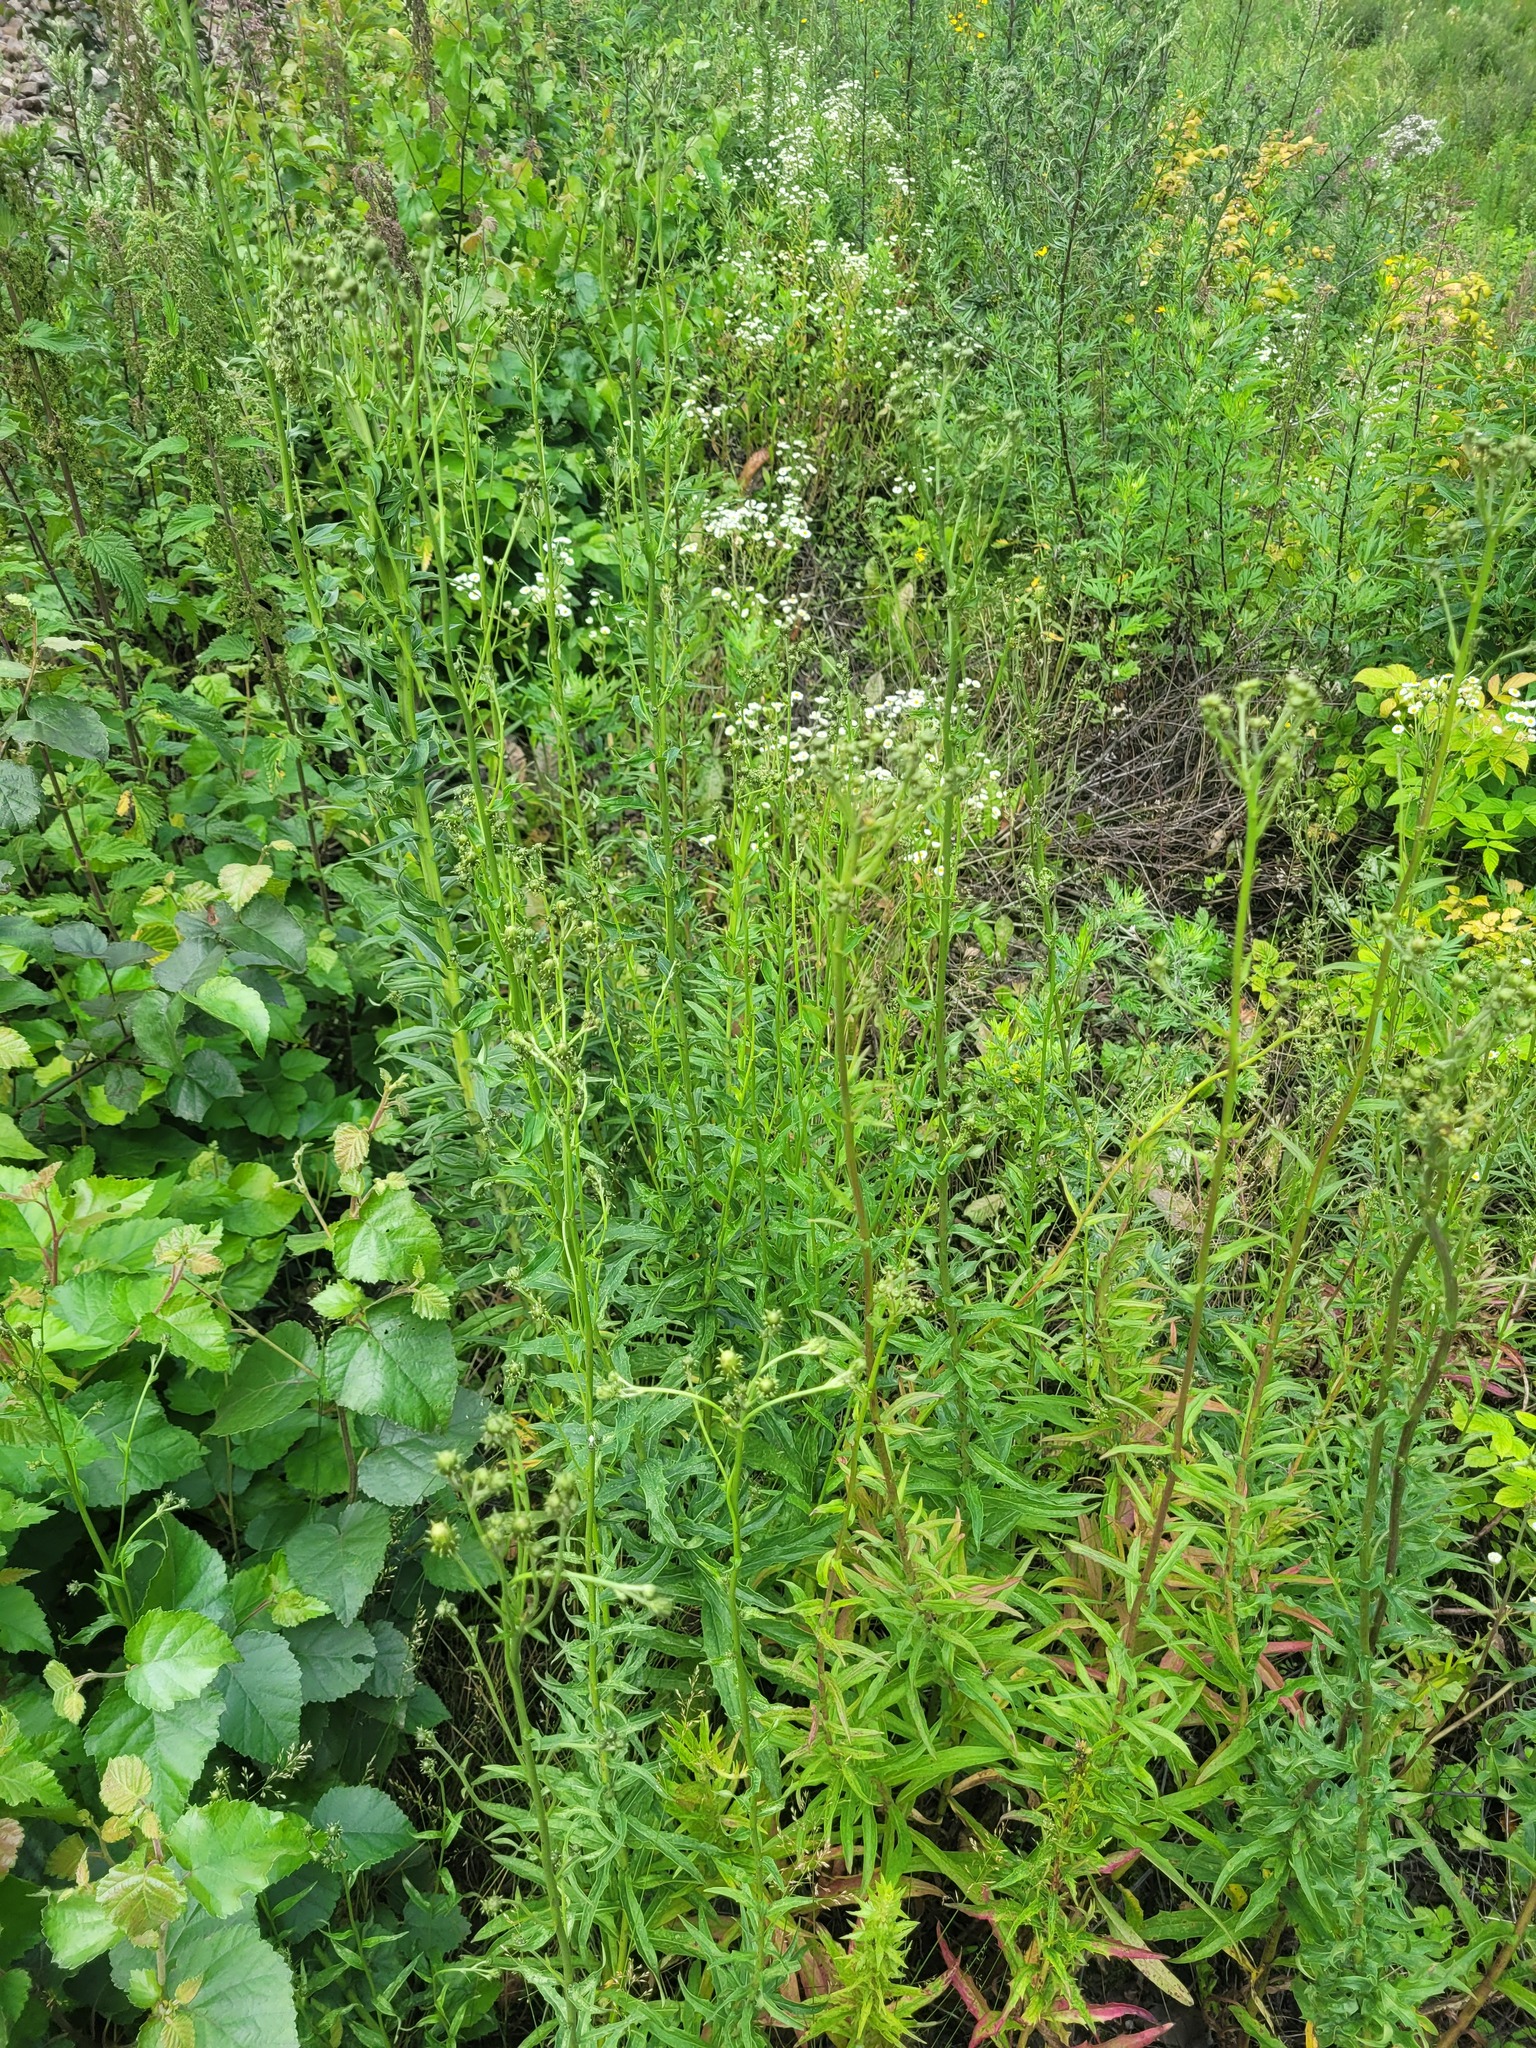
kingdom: Plantae
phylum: Tracheophyta
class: Magnoliopsida
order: Asterales
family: Asteraceae
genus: Hieracium
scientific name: Hieracium umbellatum
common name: Northern hawkweed
